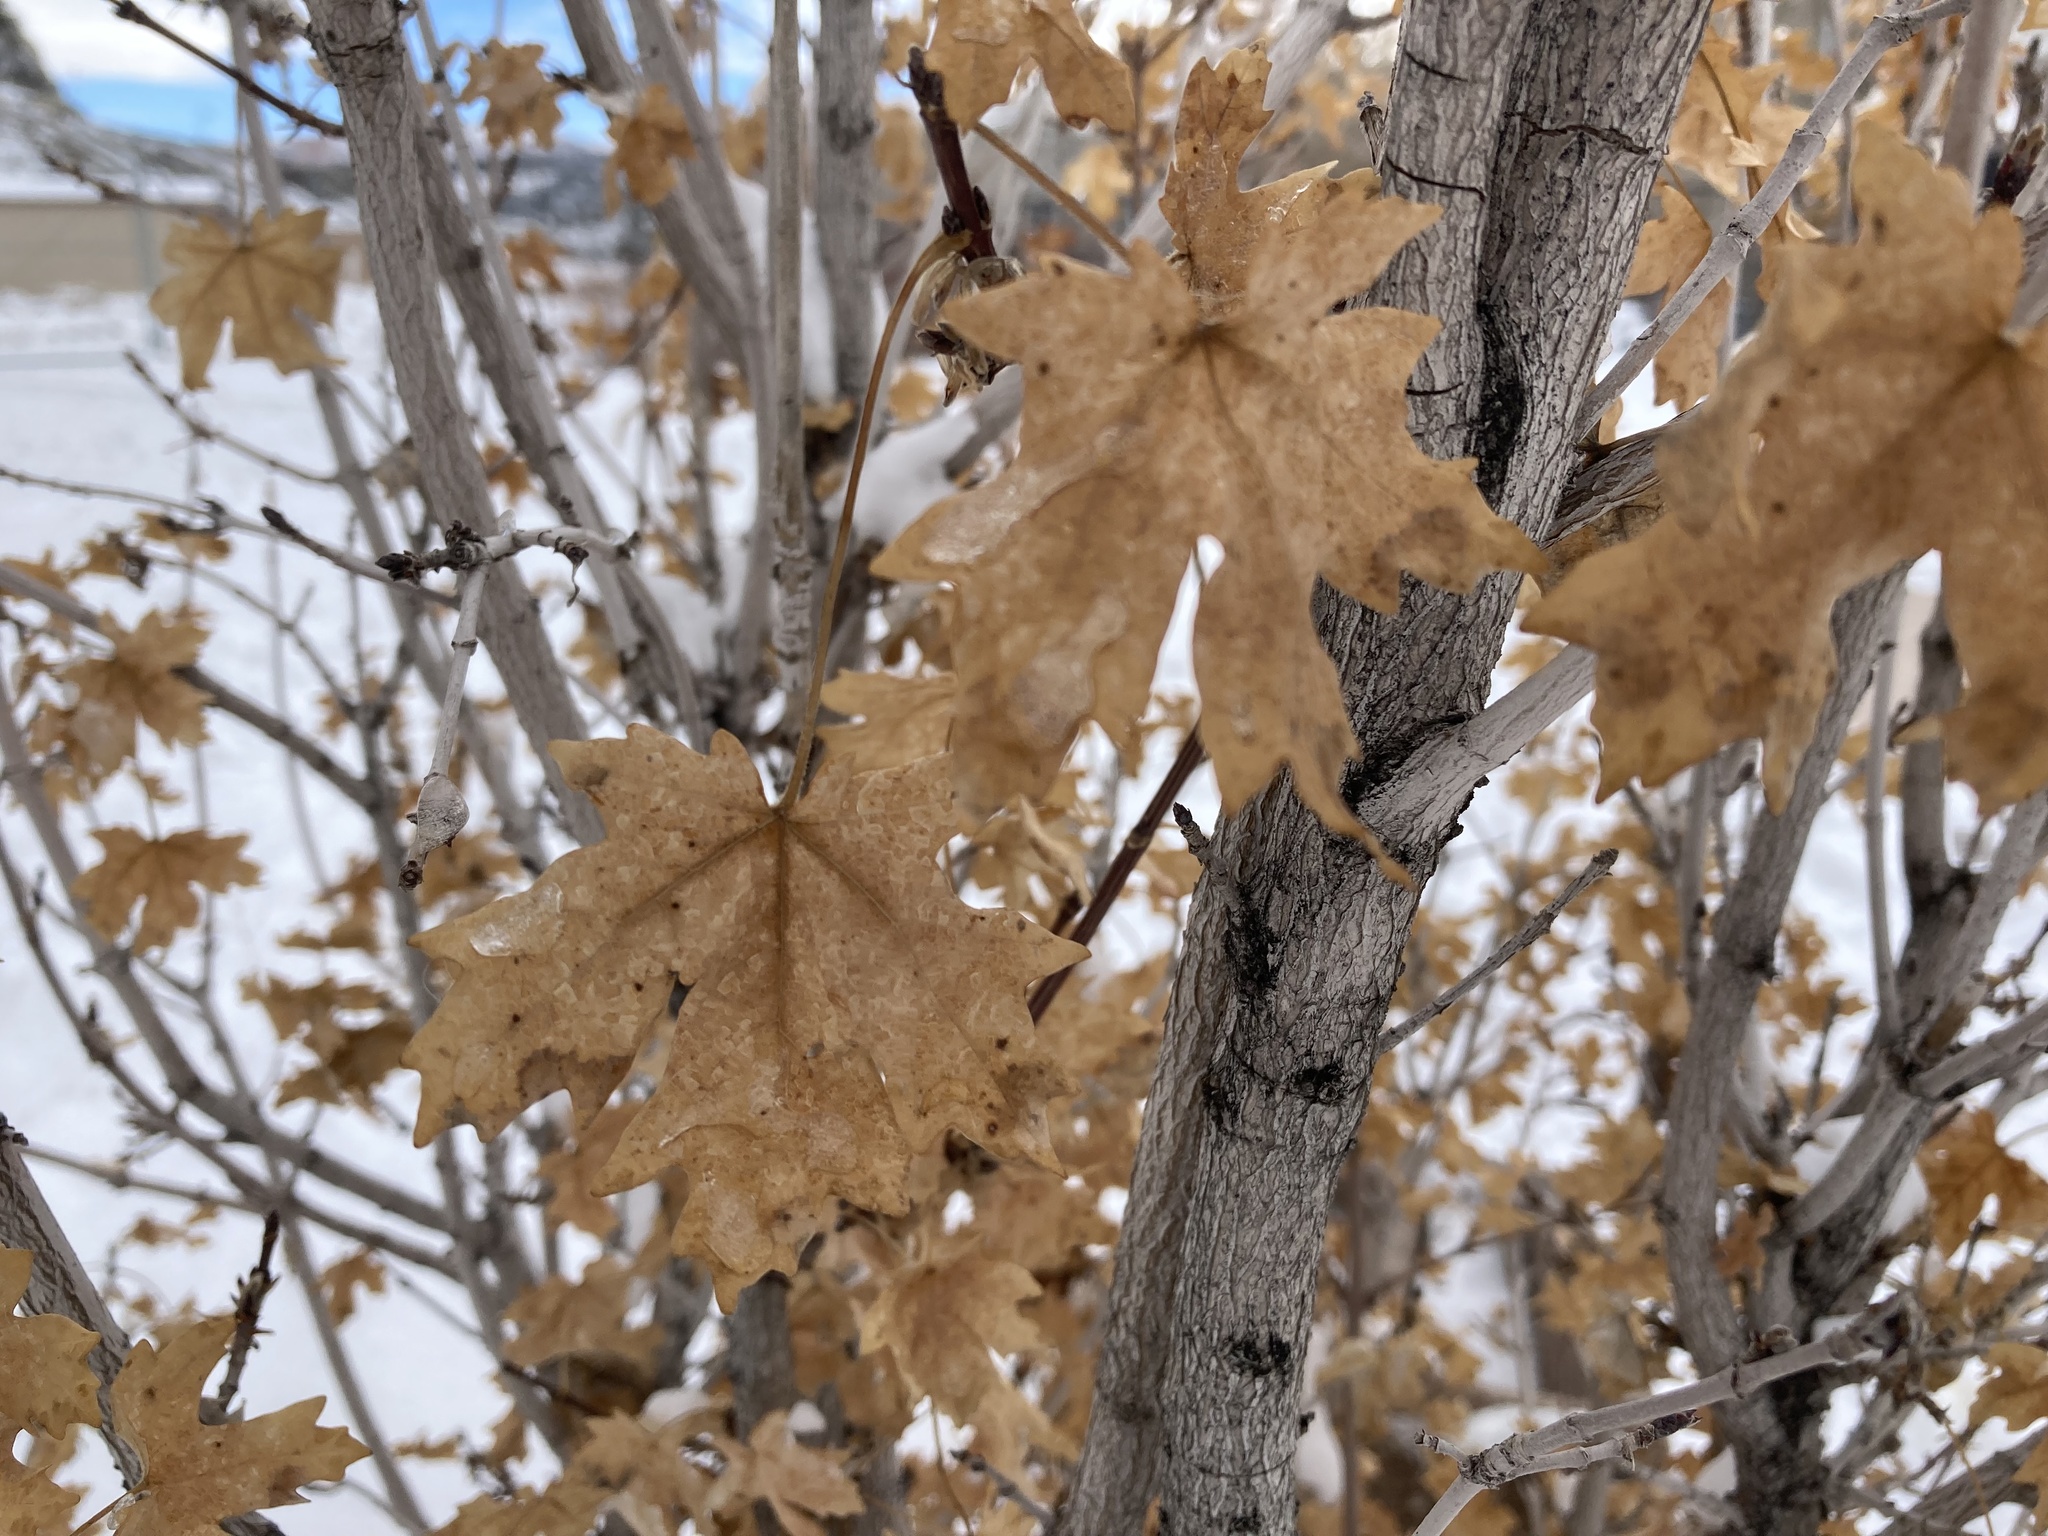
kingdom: Plantae
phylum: Tracheophyta
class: Magnoliopsida
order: Sapindales
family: Sapindaceae
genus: Acer
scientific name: Acer grandidentatum
